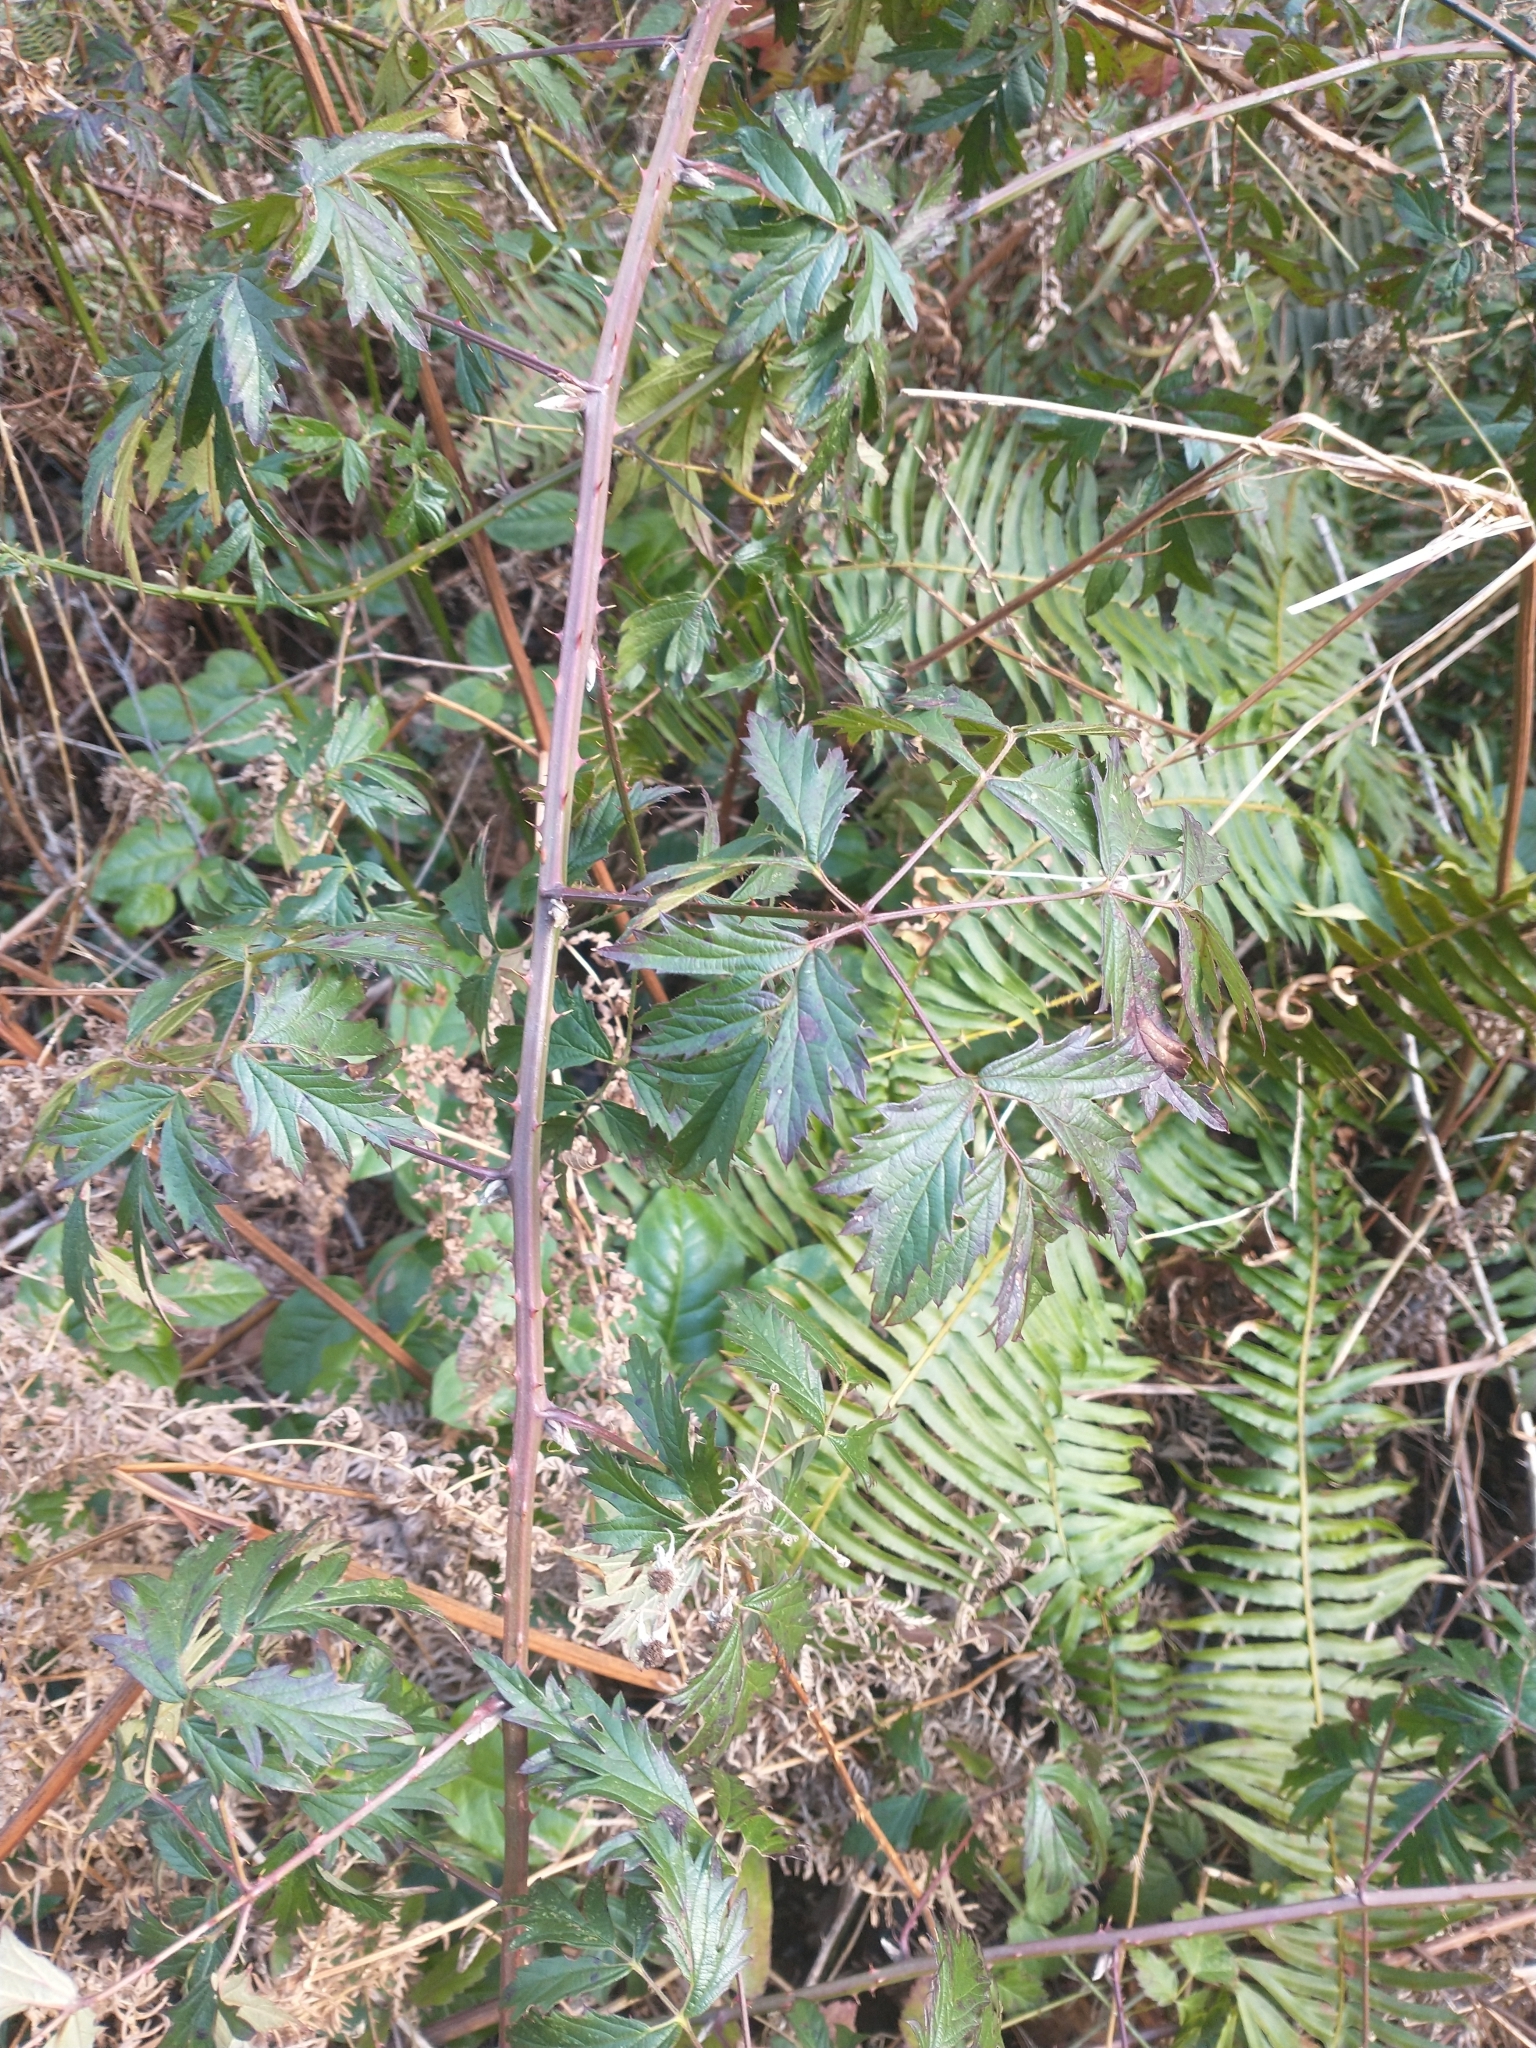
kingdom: Plantae
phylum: Tracheophyta
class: Magnoliopsida
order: Rosales
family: Rosaceae
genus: Rubus
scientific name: Rubus laciniatus
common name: Evergreen blackberry
